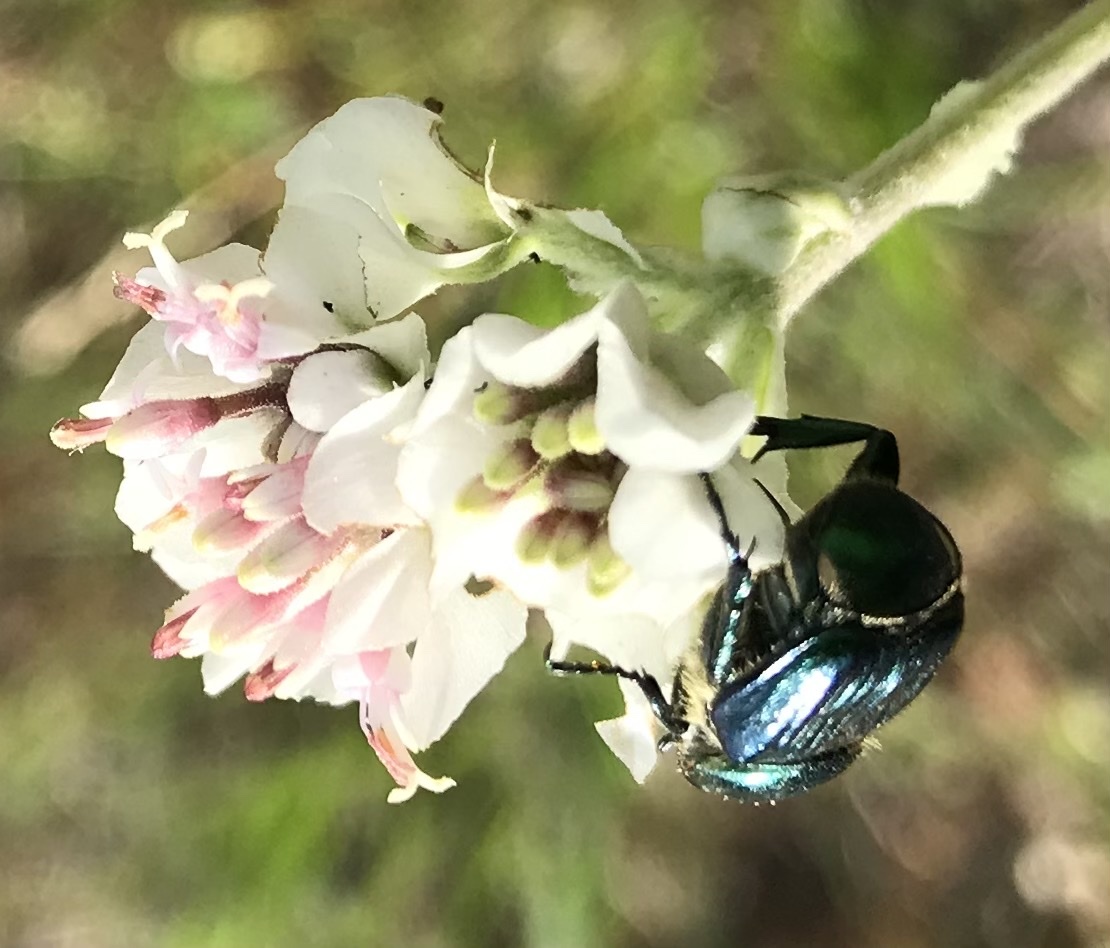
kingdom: Animalia
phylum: Arthropoda
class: Insecta
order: Coleoptera
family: Scarabaeidae
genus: Trichiotinus
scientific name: Trichiotinus lunulatus
